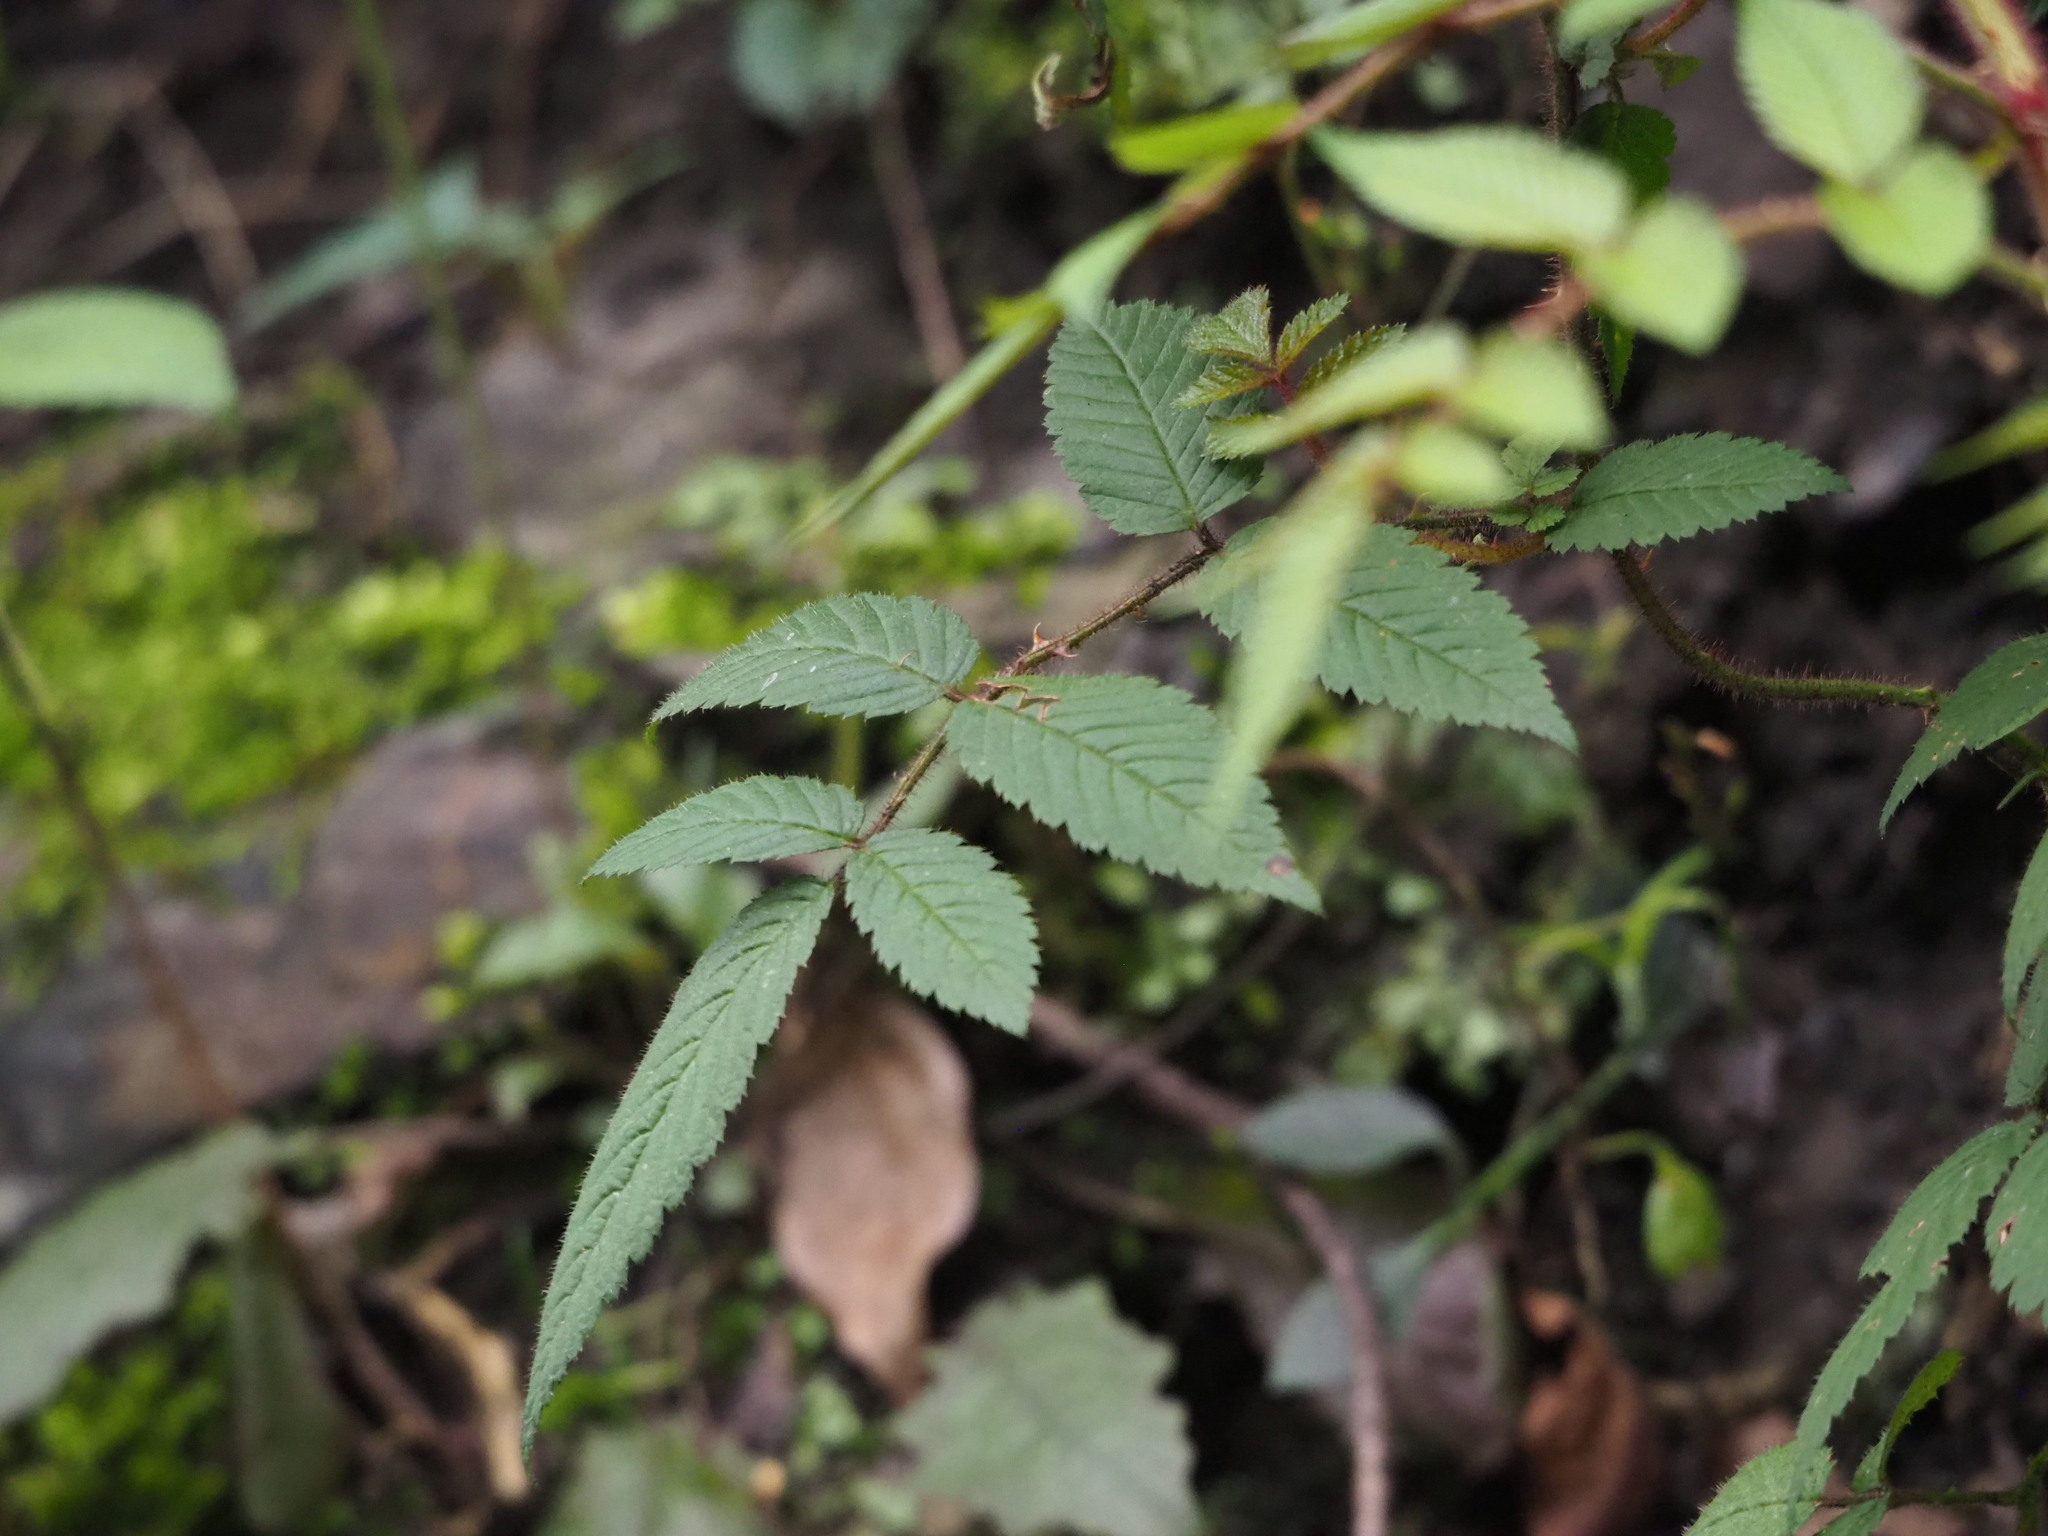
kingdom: Plantae
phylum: Tracheophyta
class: Magnoliopsida
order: Rosales
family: Rosaceae
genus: Rubus
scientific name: Rubus croceacanthus
